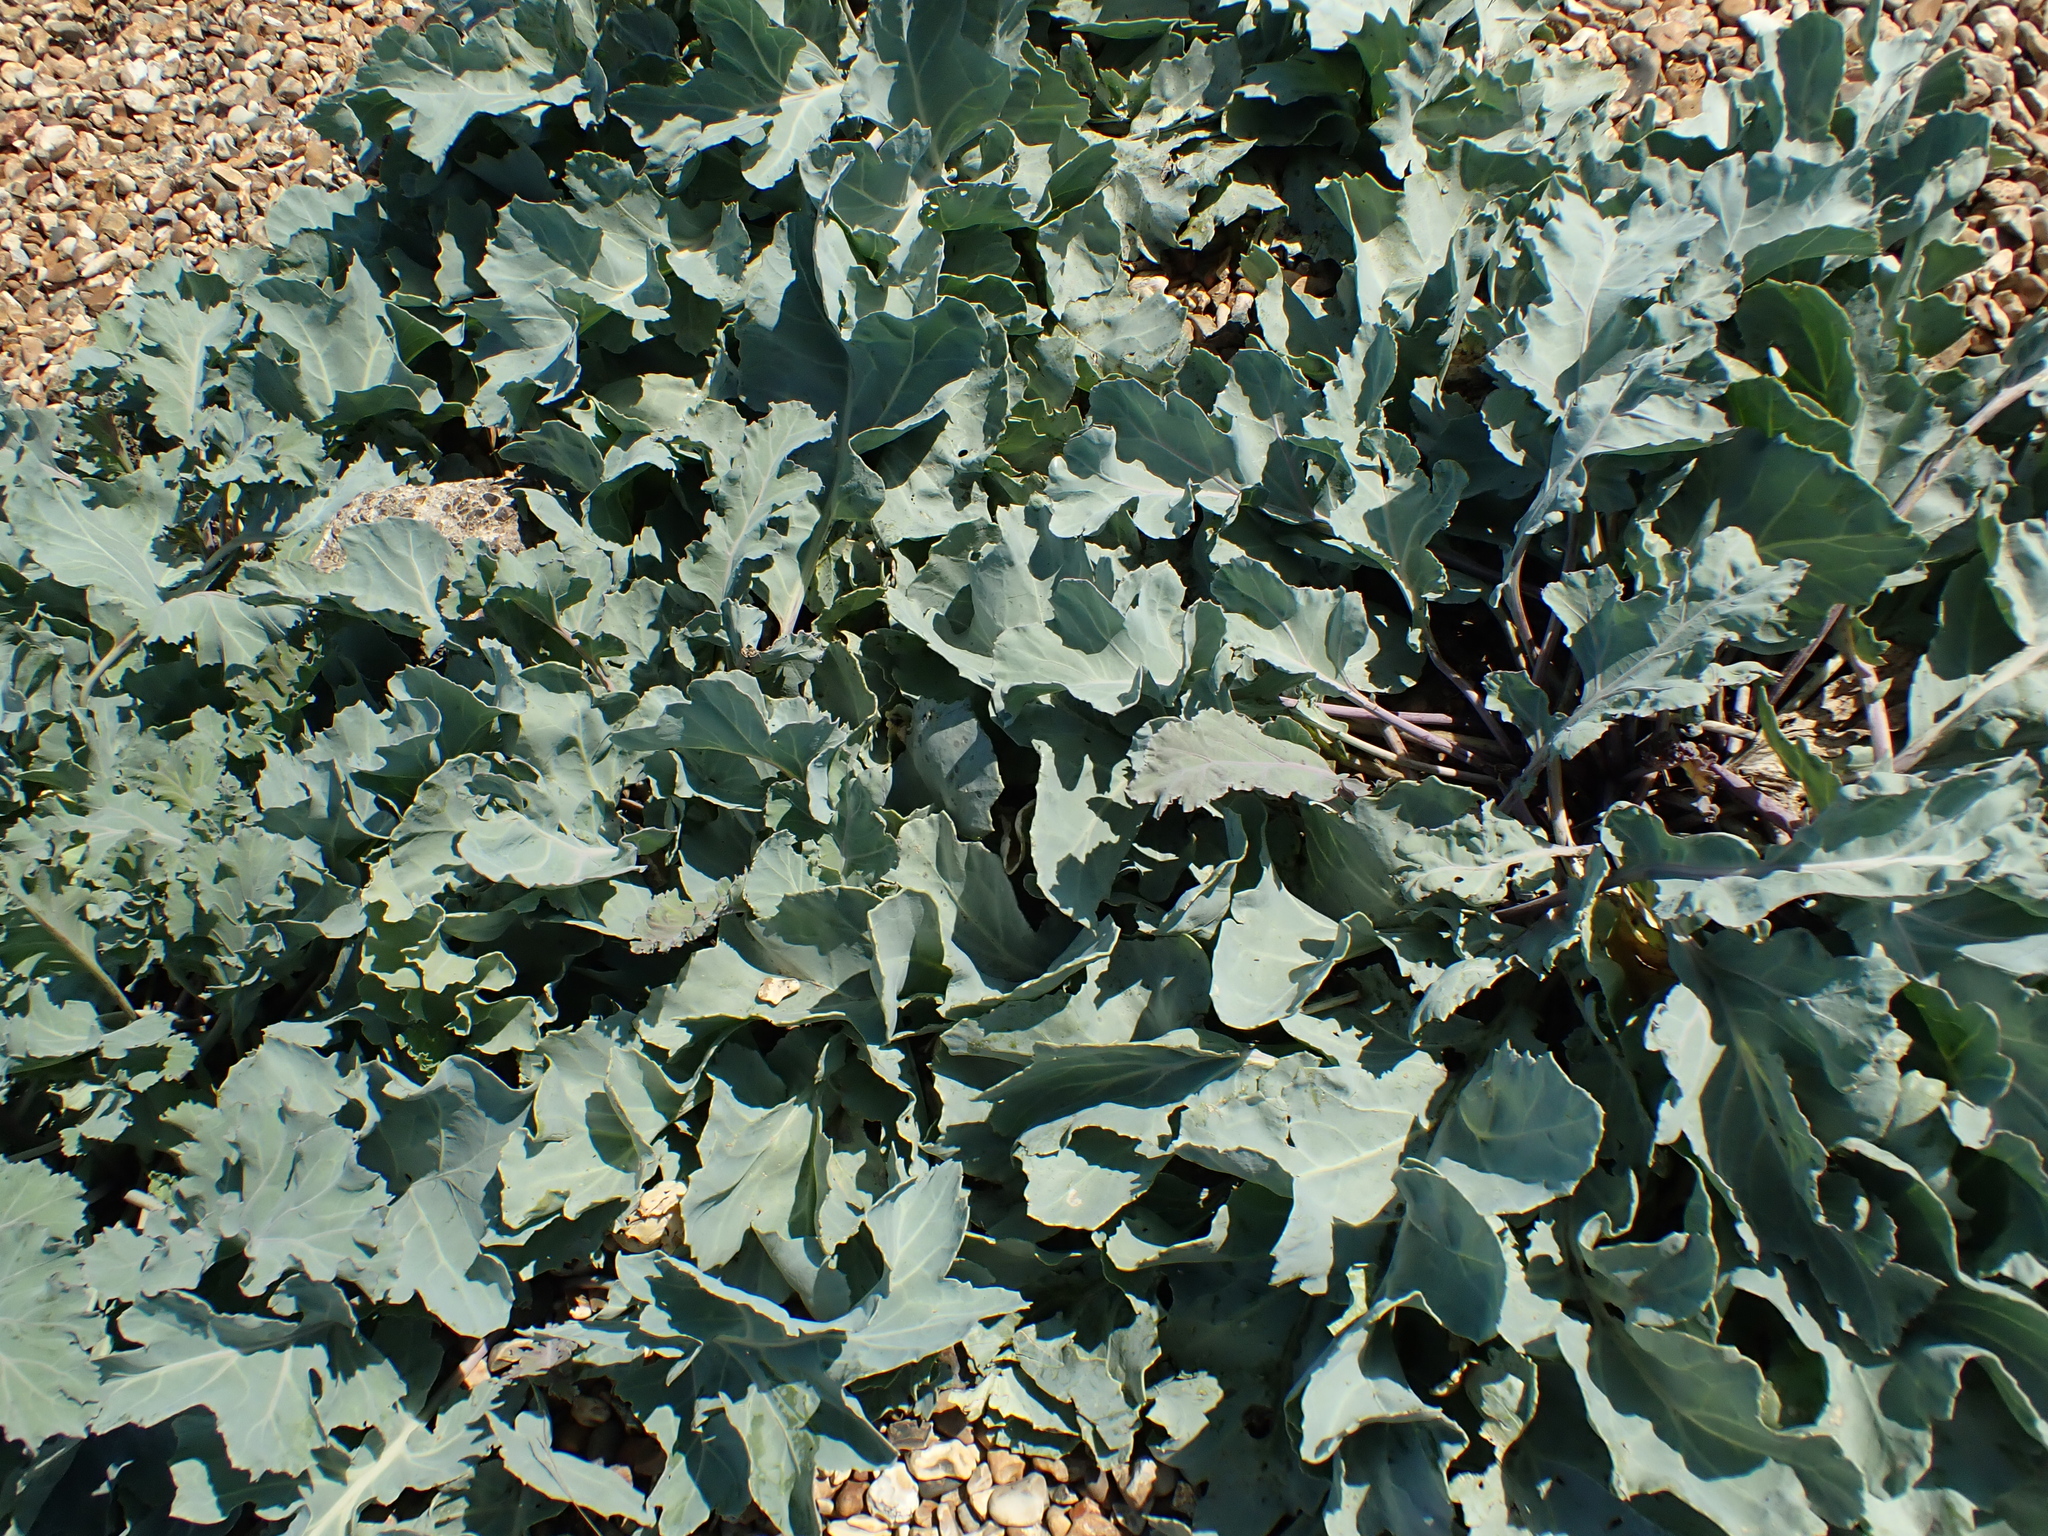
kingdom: Plantae
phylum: Tracheophyta
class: Magnoliopsida
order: Brassicales
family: Brassicaceae
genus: Crambe
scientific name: Crambe maritima
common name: Sea-kale
